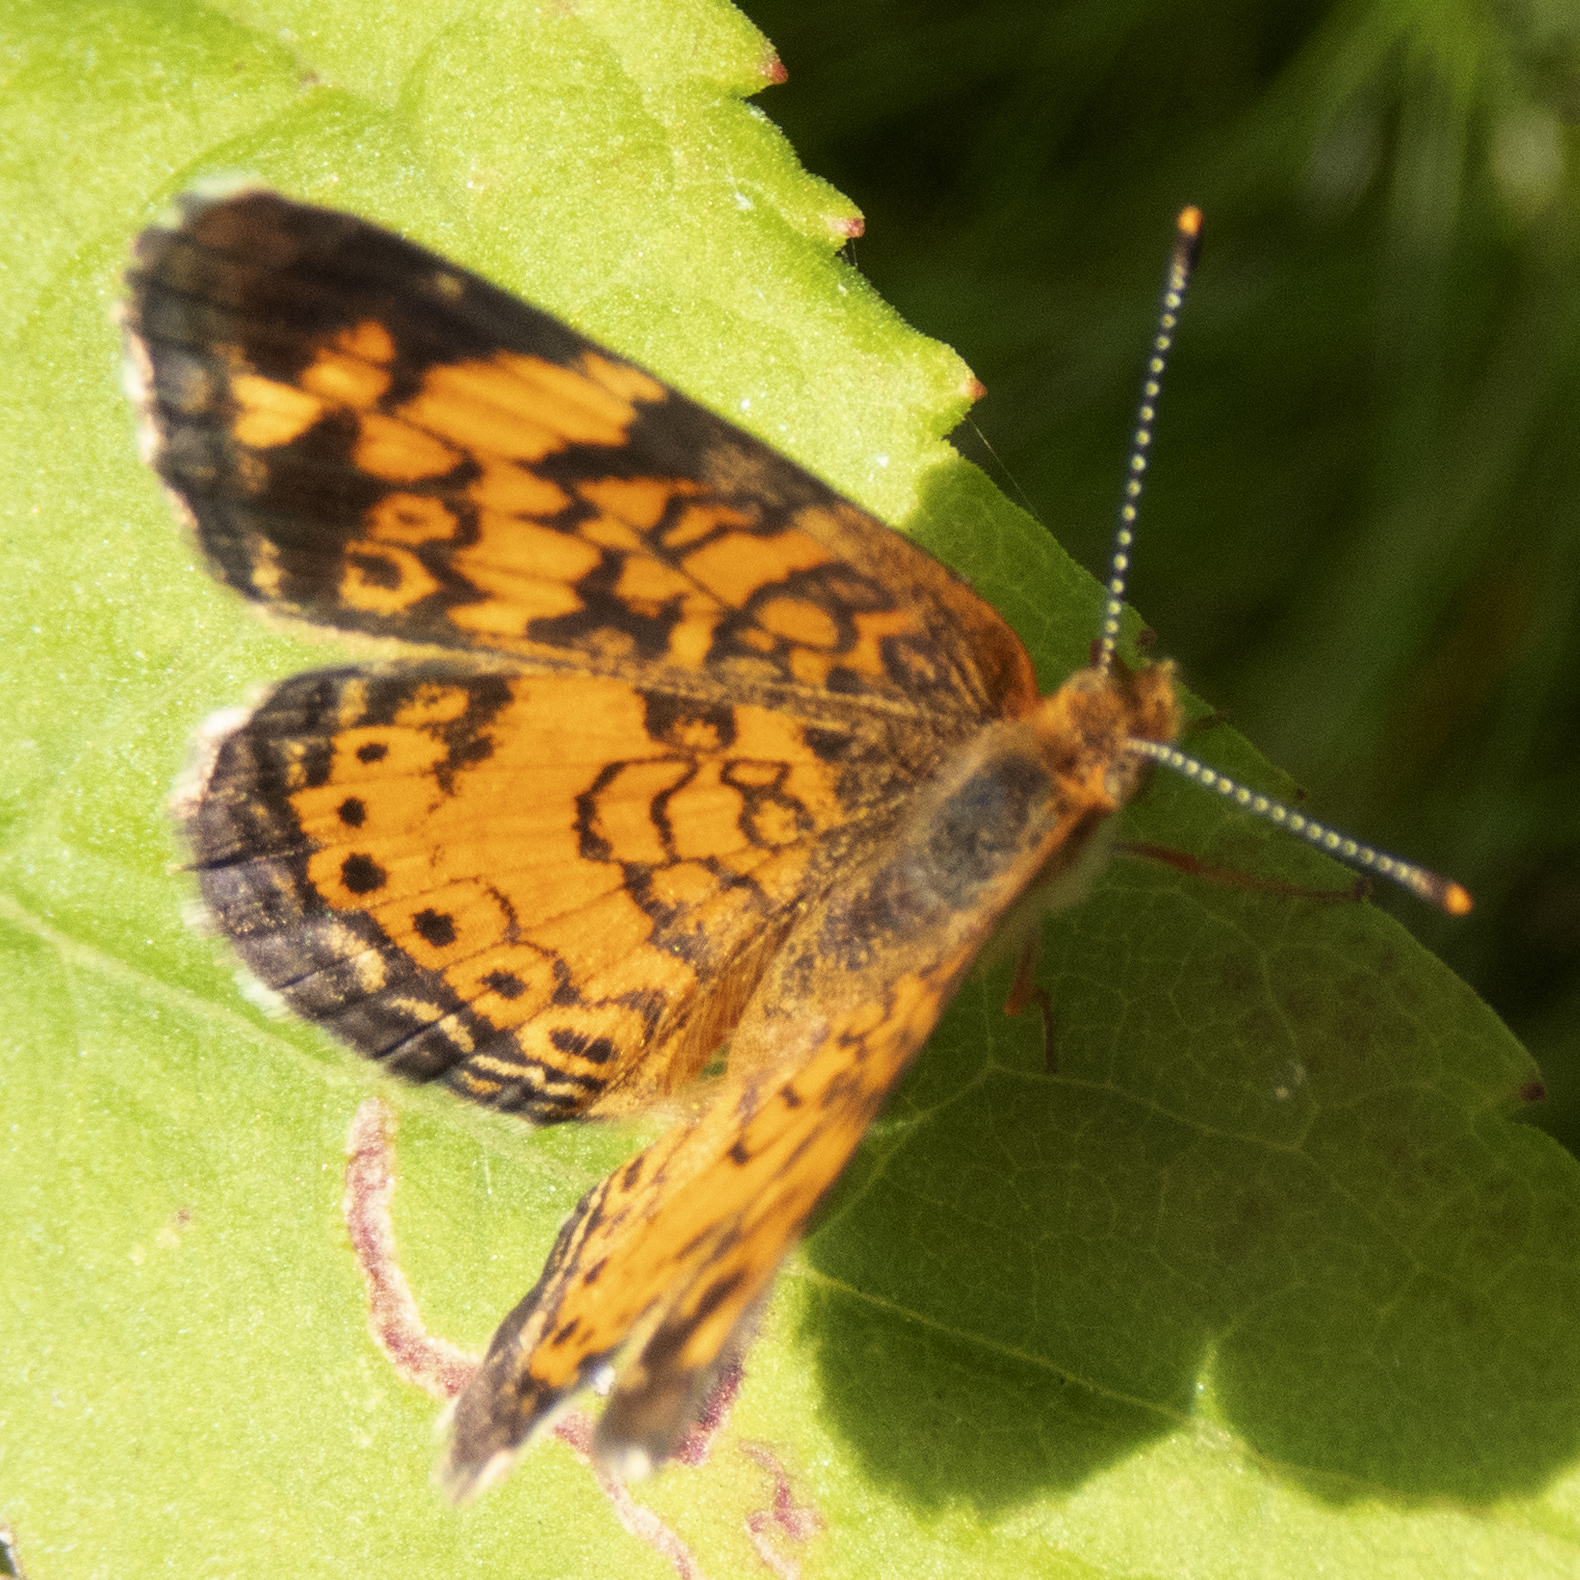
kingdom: Animalia
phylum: Arthropoda
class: Insecta
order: Lepidoptera
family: Nymphalidae
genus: Phyciodes
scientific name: Phyciodes tharos
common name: Pearl crescent
